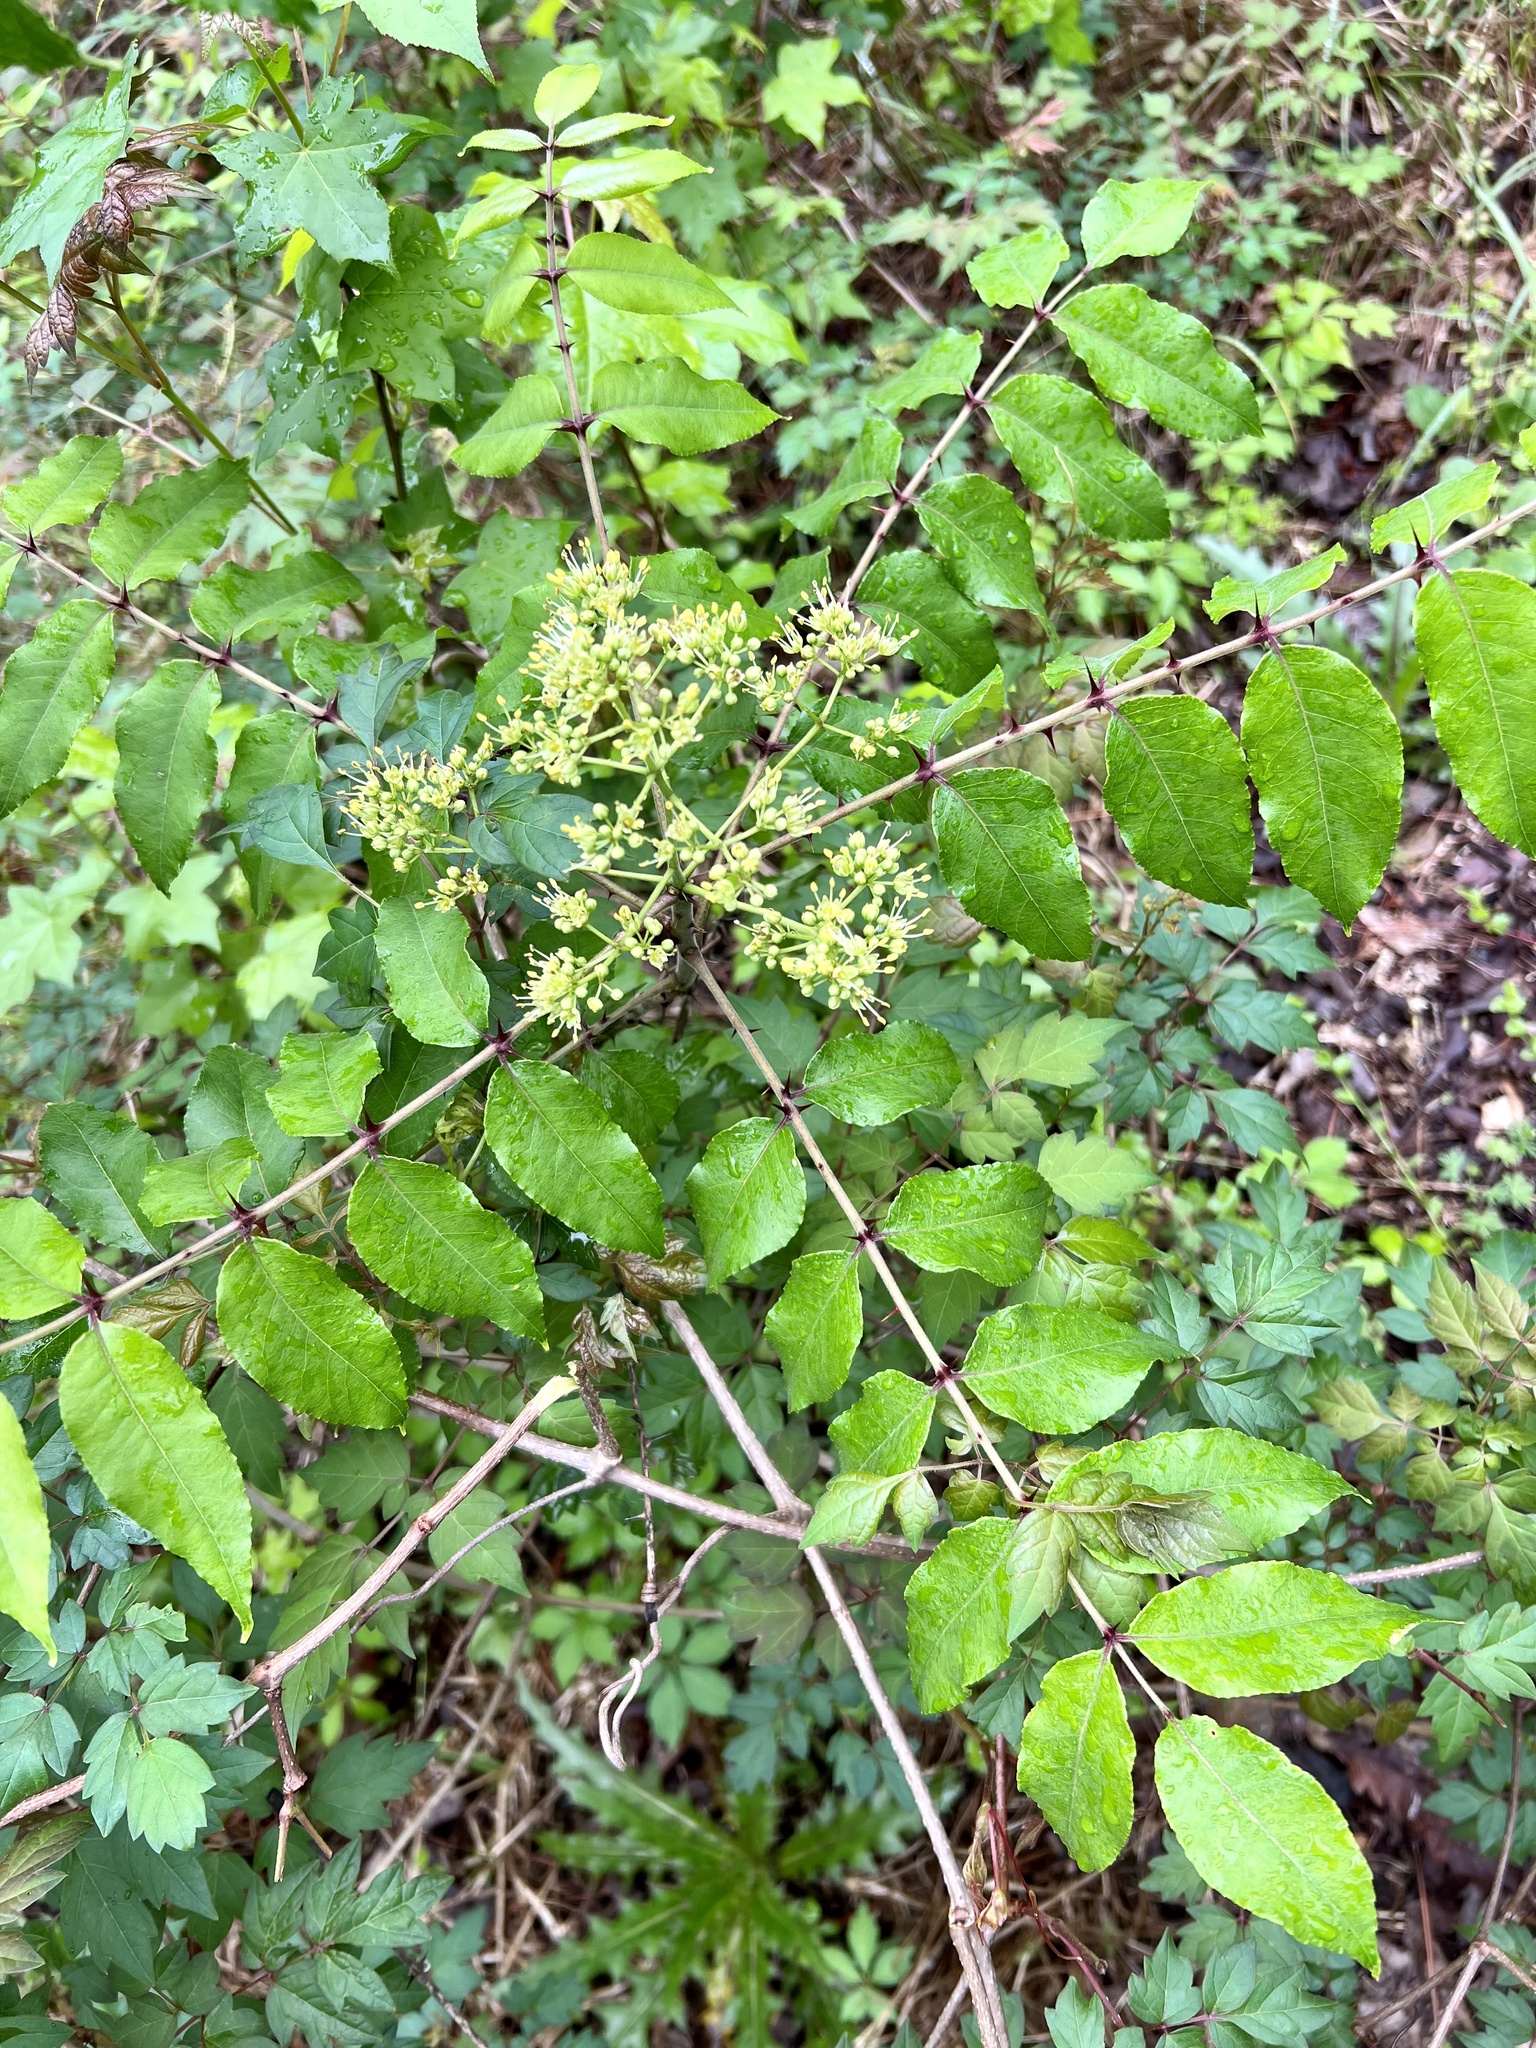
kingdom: Plantae
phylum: Tracheophyta
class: Magnoliopsida
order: Sapindales
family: Rutaceae
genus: Zanthoxylum
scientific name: Zanthoxylum clava-herculis
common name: Hercules'-club
